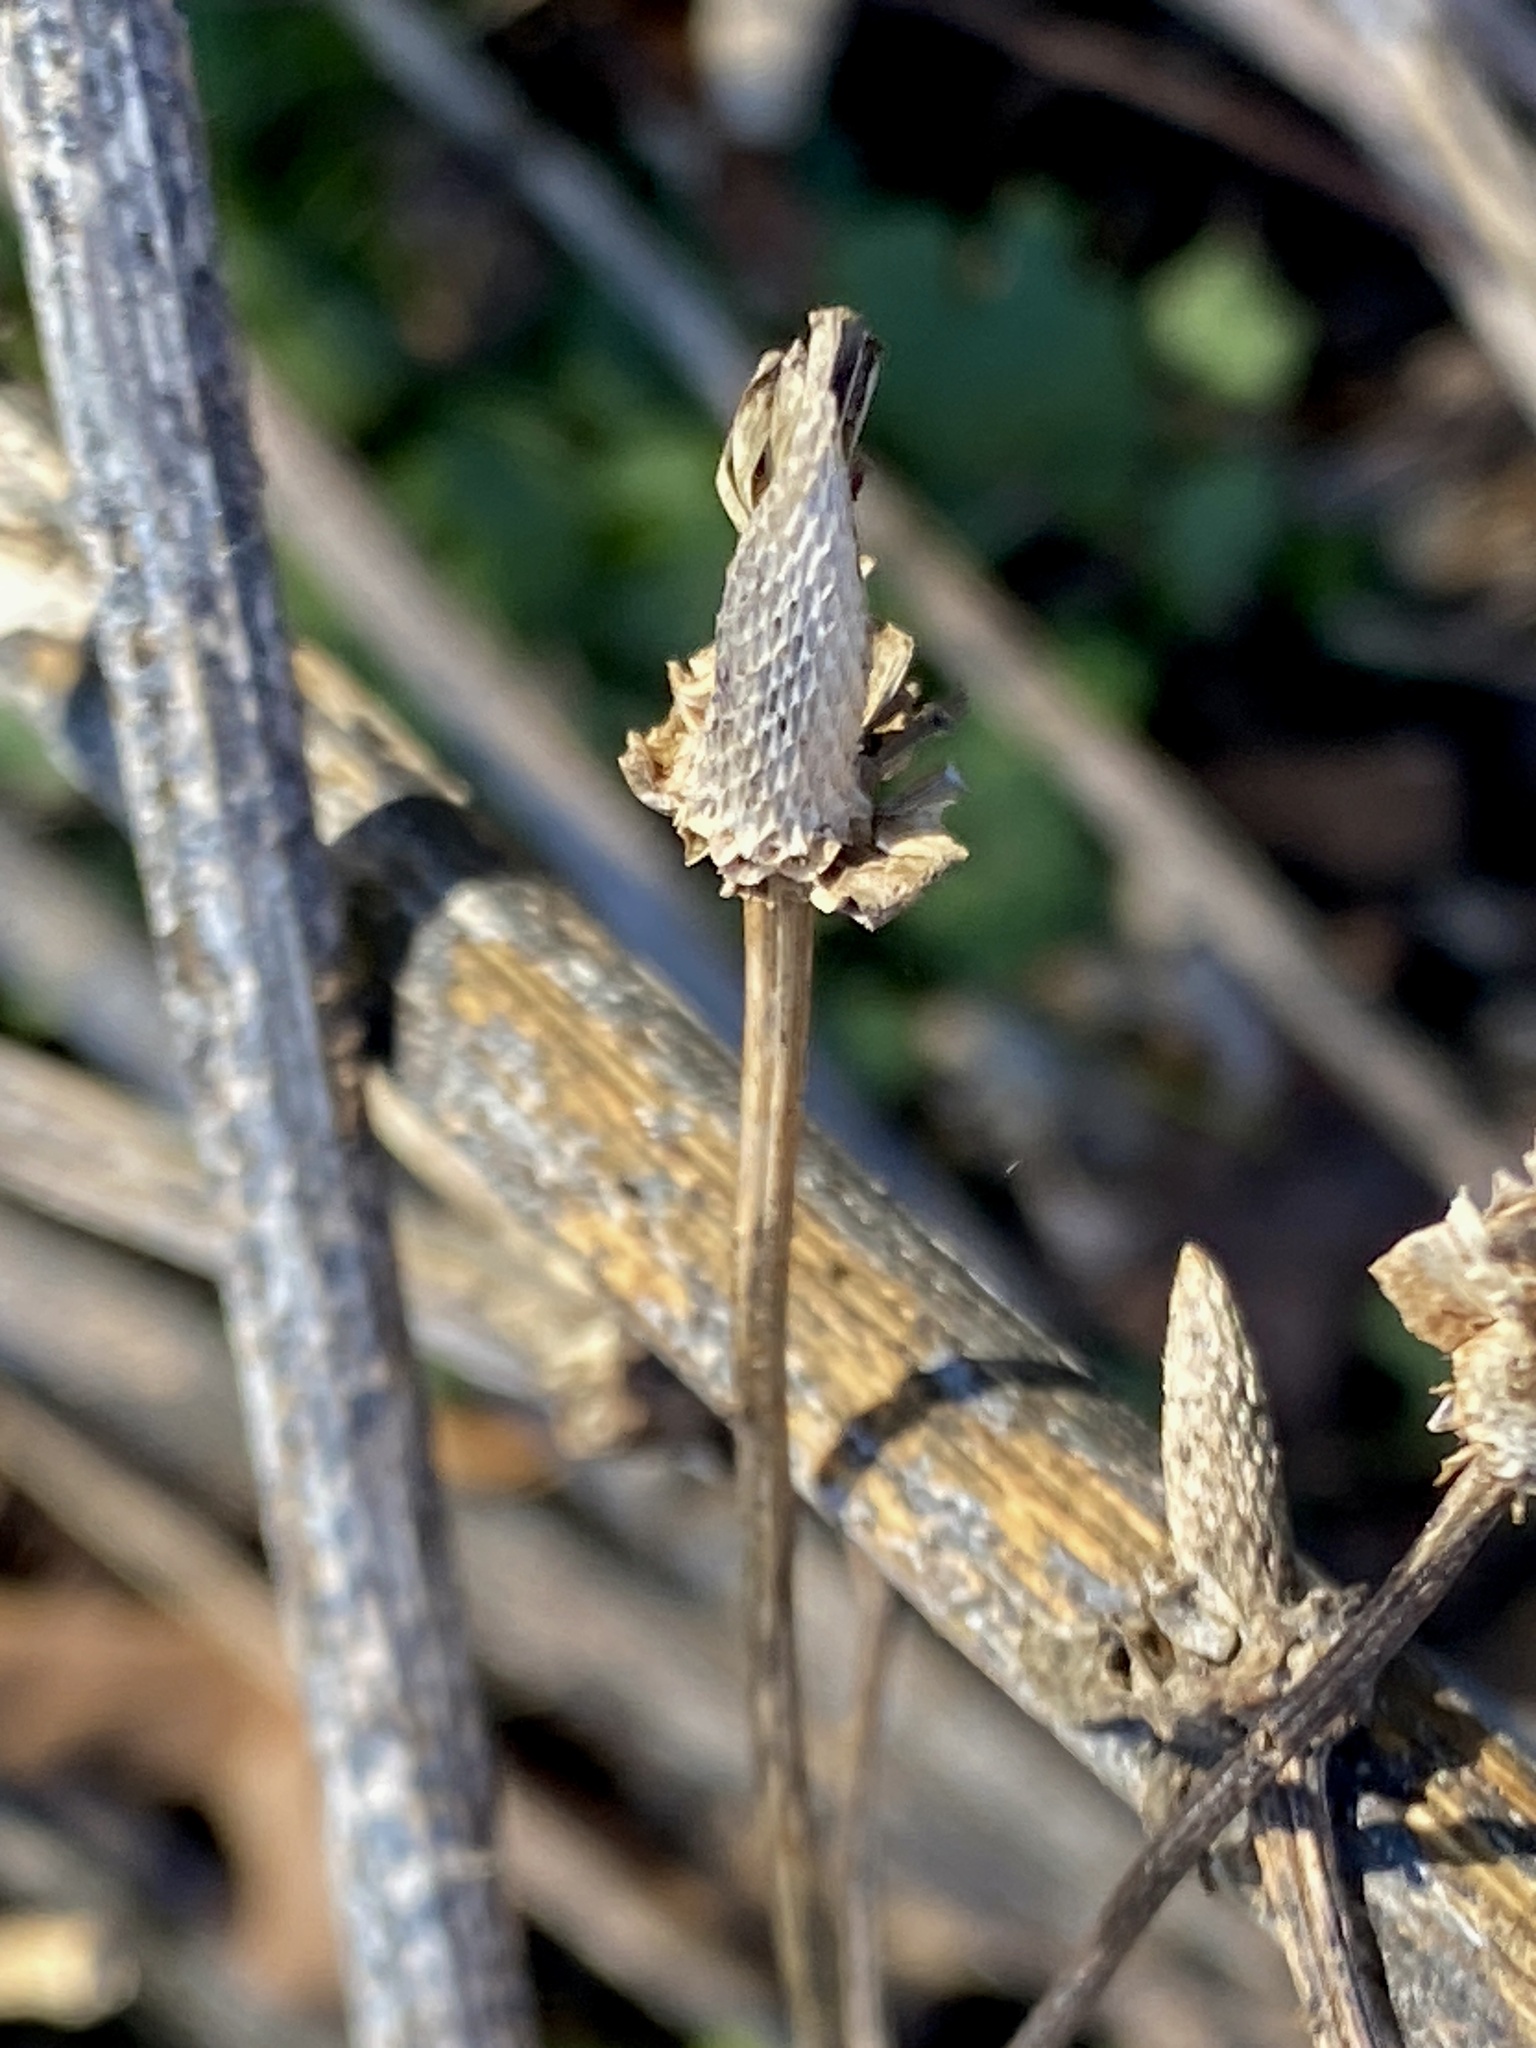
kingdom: Plantae
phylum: Tracheophyta
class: Magnoliopsida
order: Asterales
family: Asteraceae
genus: Rudbeckia
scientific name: Rudbeckia laciniata
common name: Coneflower
